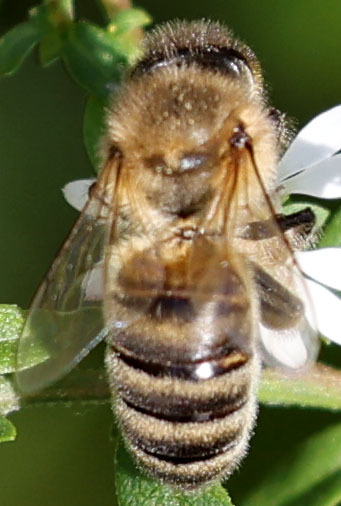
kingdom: Animalia
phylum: Arthropoda
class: Insecta
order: Hymenoptera
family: Apidae
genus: Apis
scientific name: Apis mellifera
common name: Honey bee
